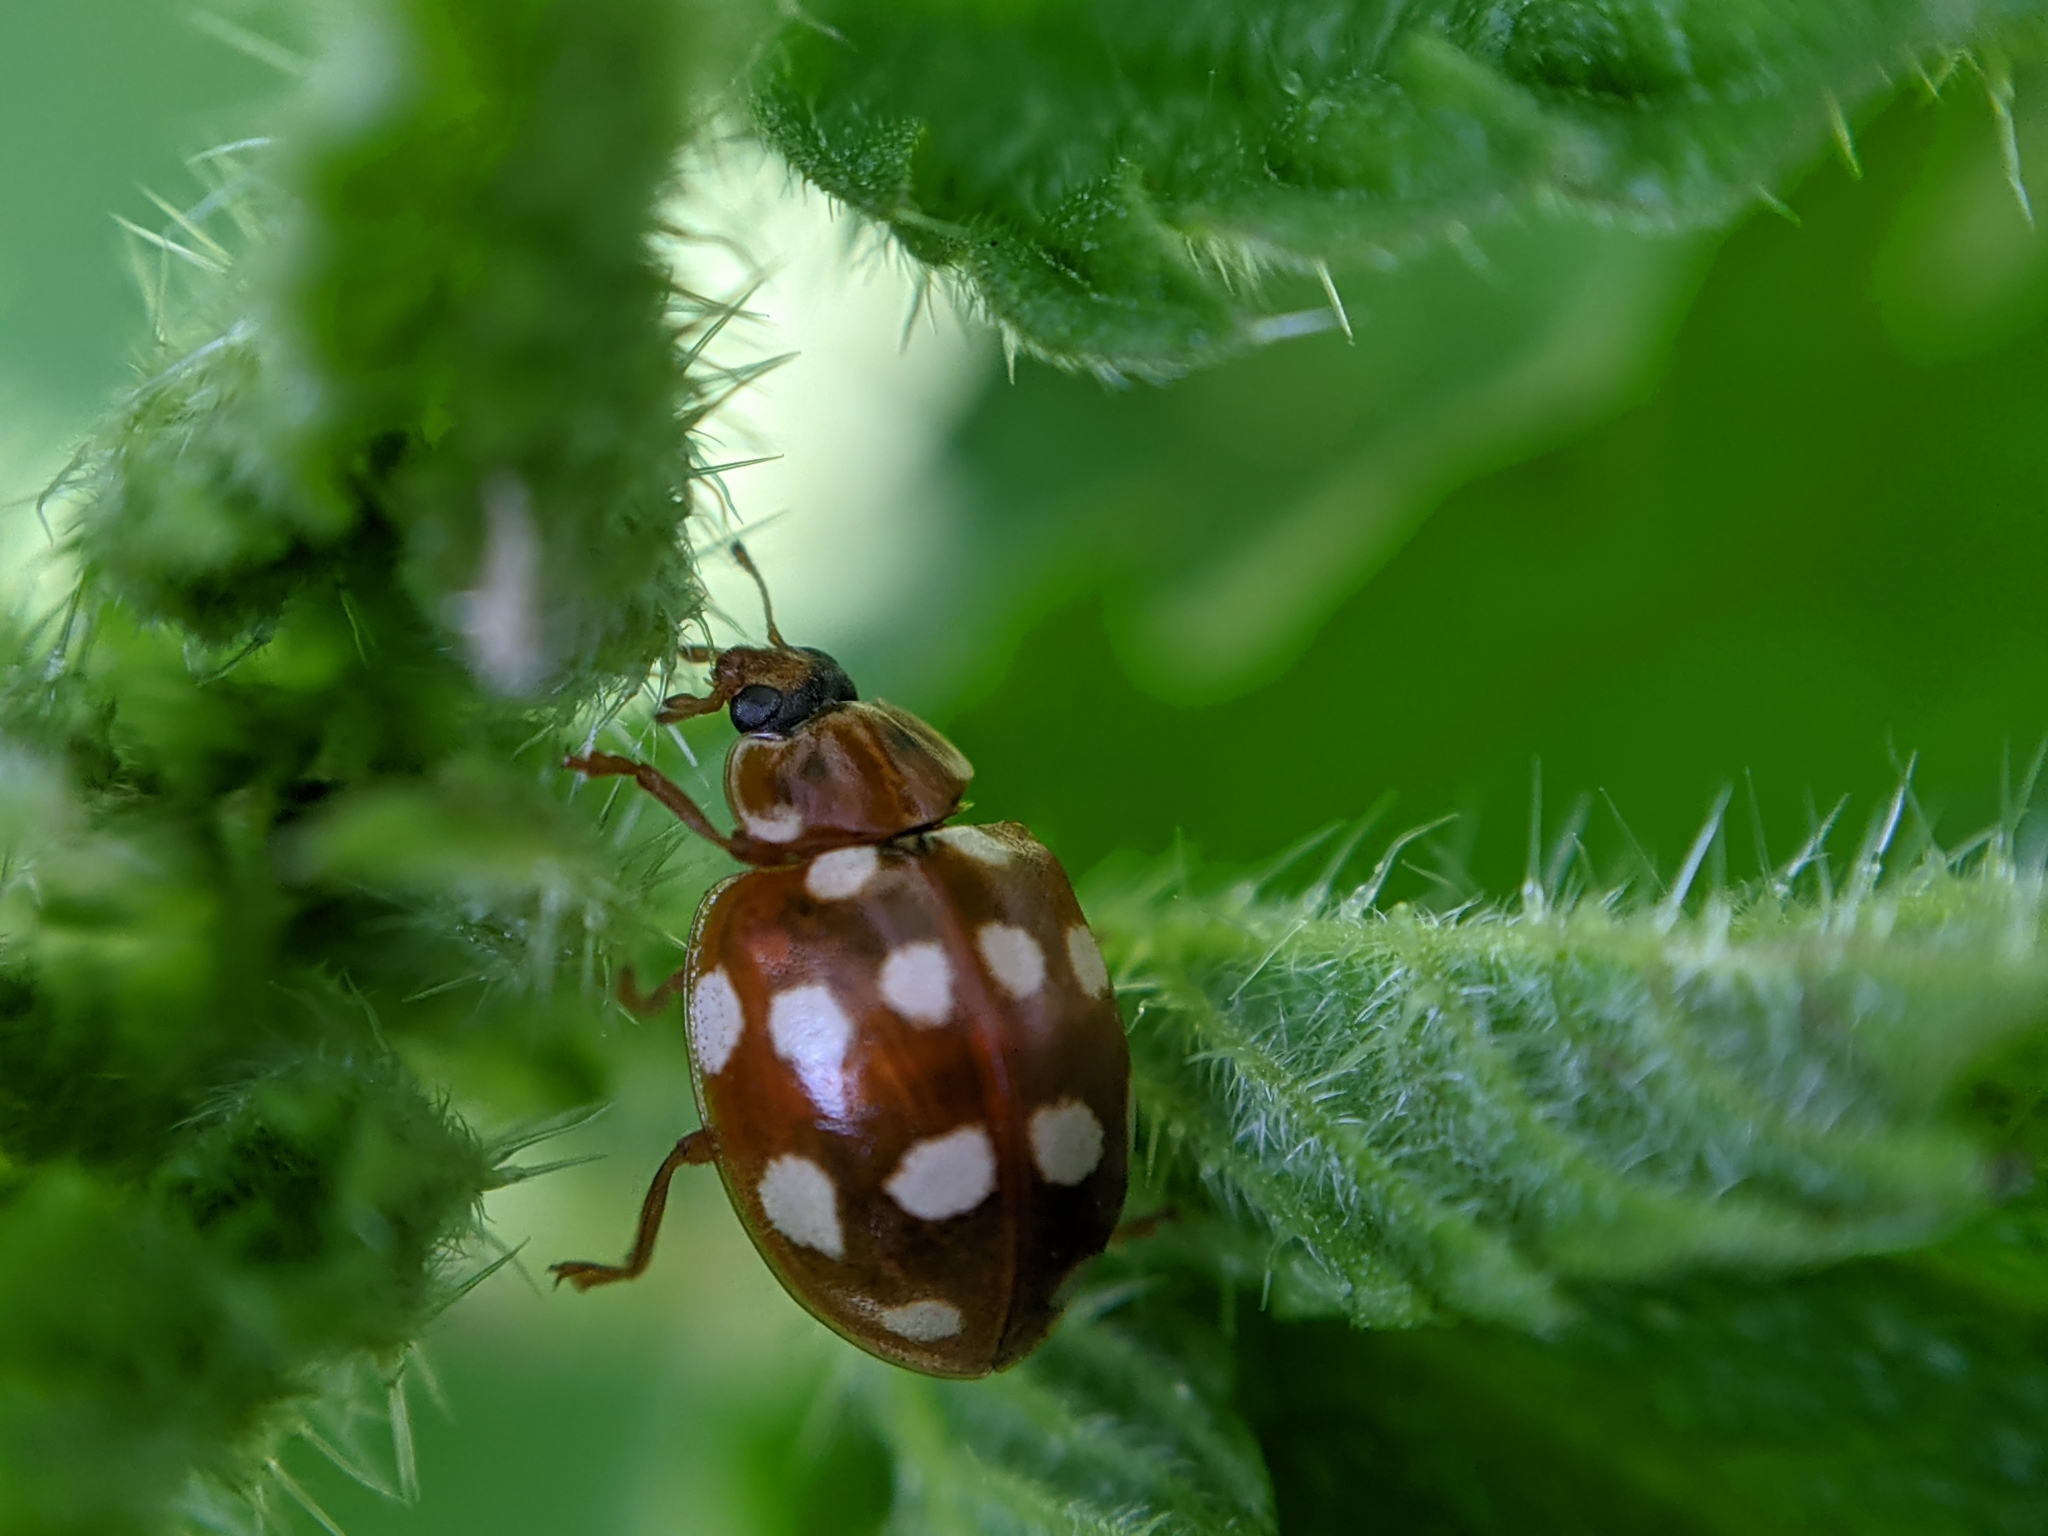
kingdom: Animalia
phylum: Arthropoda
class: Insecta
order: Coleoptera
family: Coccinellidae
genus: Calvia
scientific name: Calvia quatuordecimguttata
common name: Cream-spot ladybird
